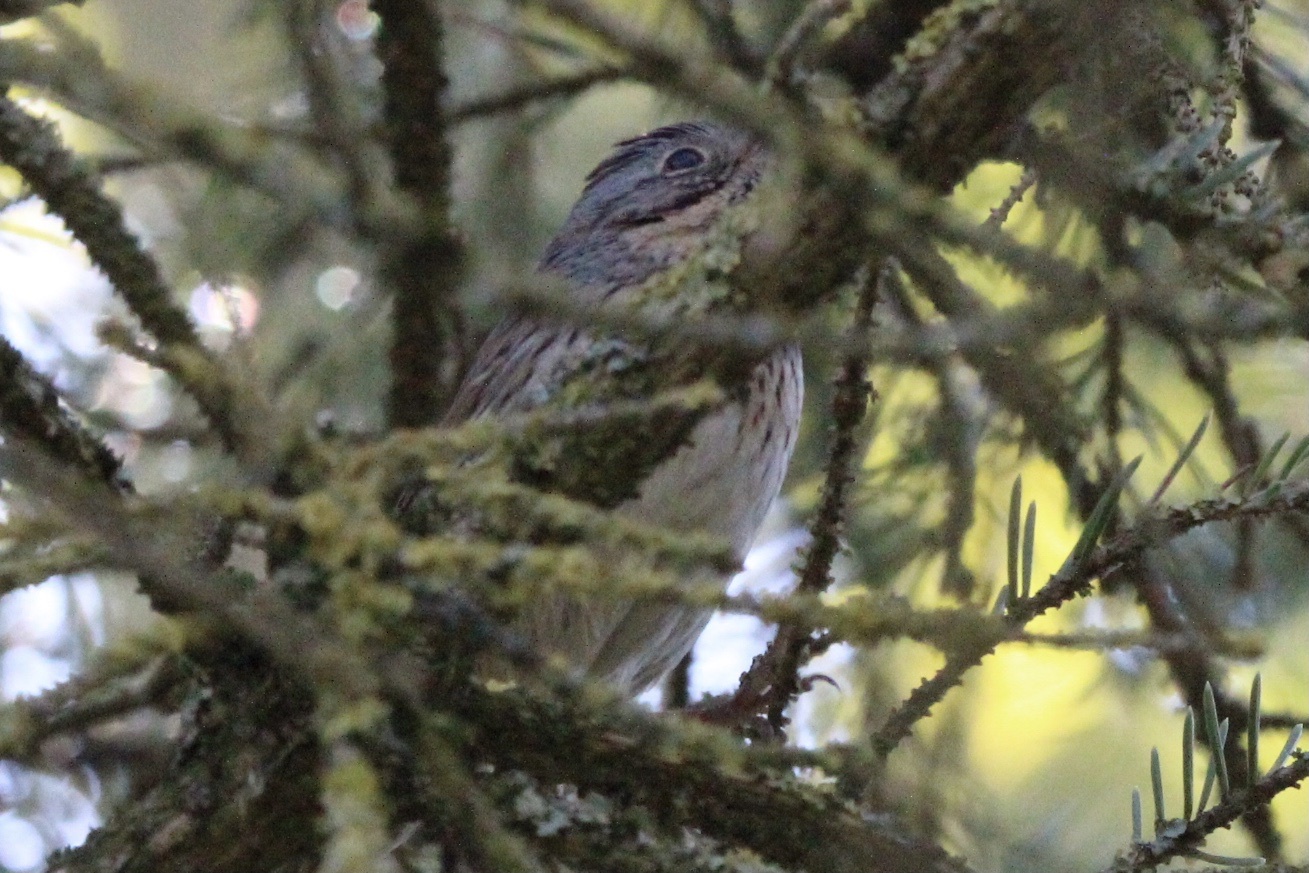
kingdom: Animalia
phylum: Chordata
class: Aves
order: Passeriformes
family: Passerellidae
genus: Melospiza
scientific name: Melospiza lincolnii
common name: Lincoln's sparrow
